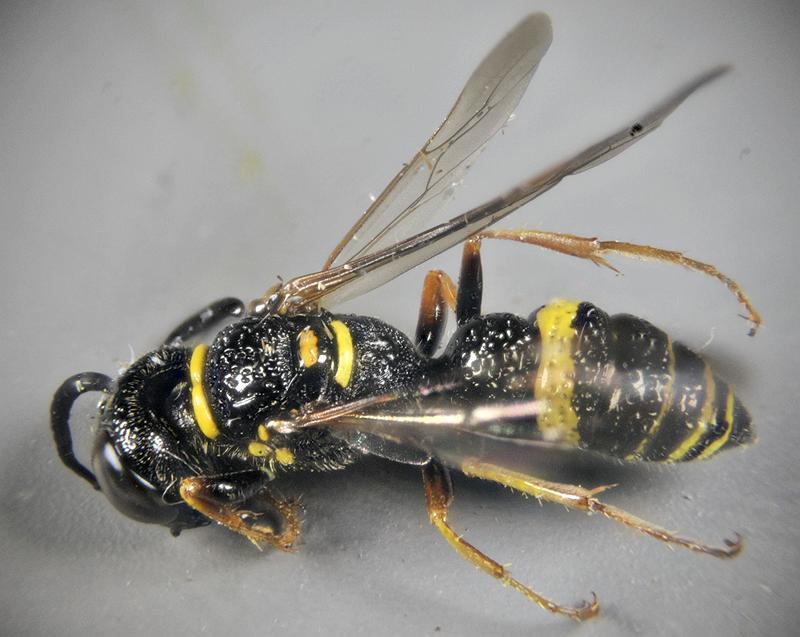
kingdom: Animalia
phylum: Arthropoda
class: Insecta
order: Hymenoptera
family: Crabronidae
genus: Philanthus
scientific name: Philanthus gibbosus
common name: Humped beewolf
